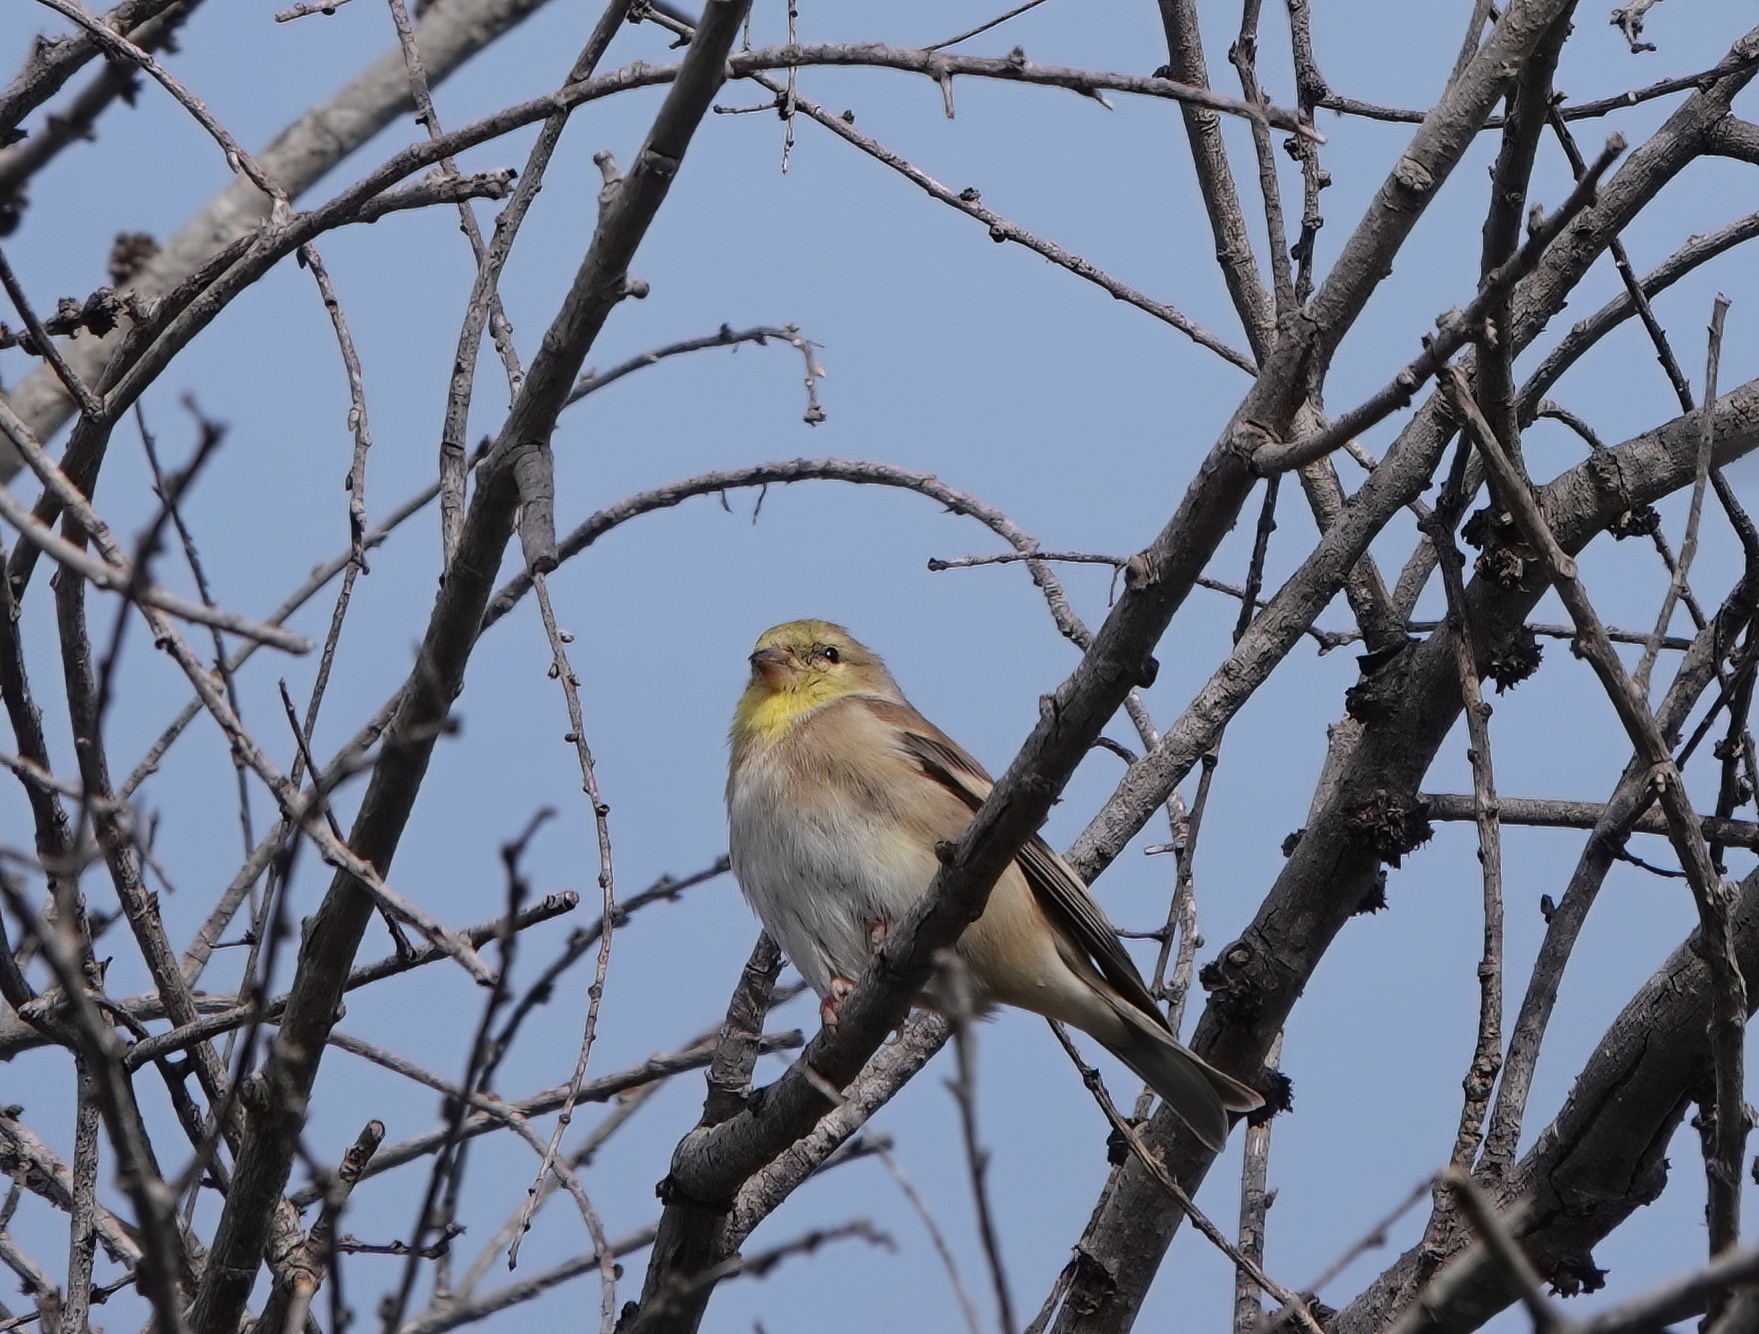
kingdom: Animalia
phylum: Chordata
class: Aves
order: Passeriformes
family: Fringillidae
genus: Spinus
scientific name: Spinus tristis
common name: American goldfinch
